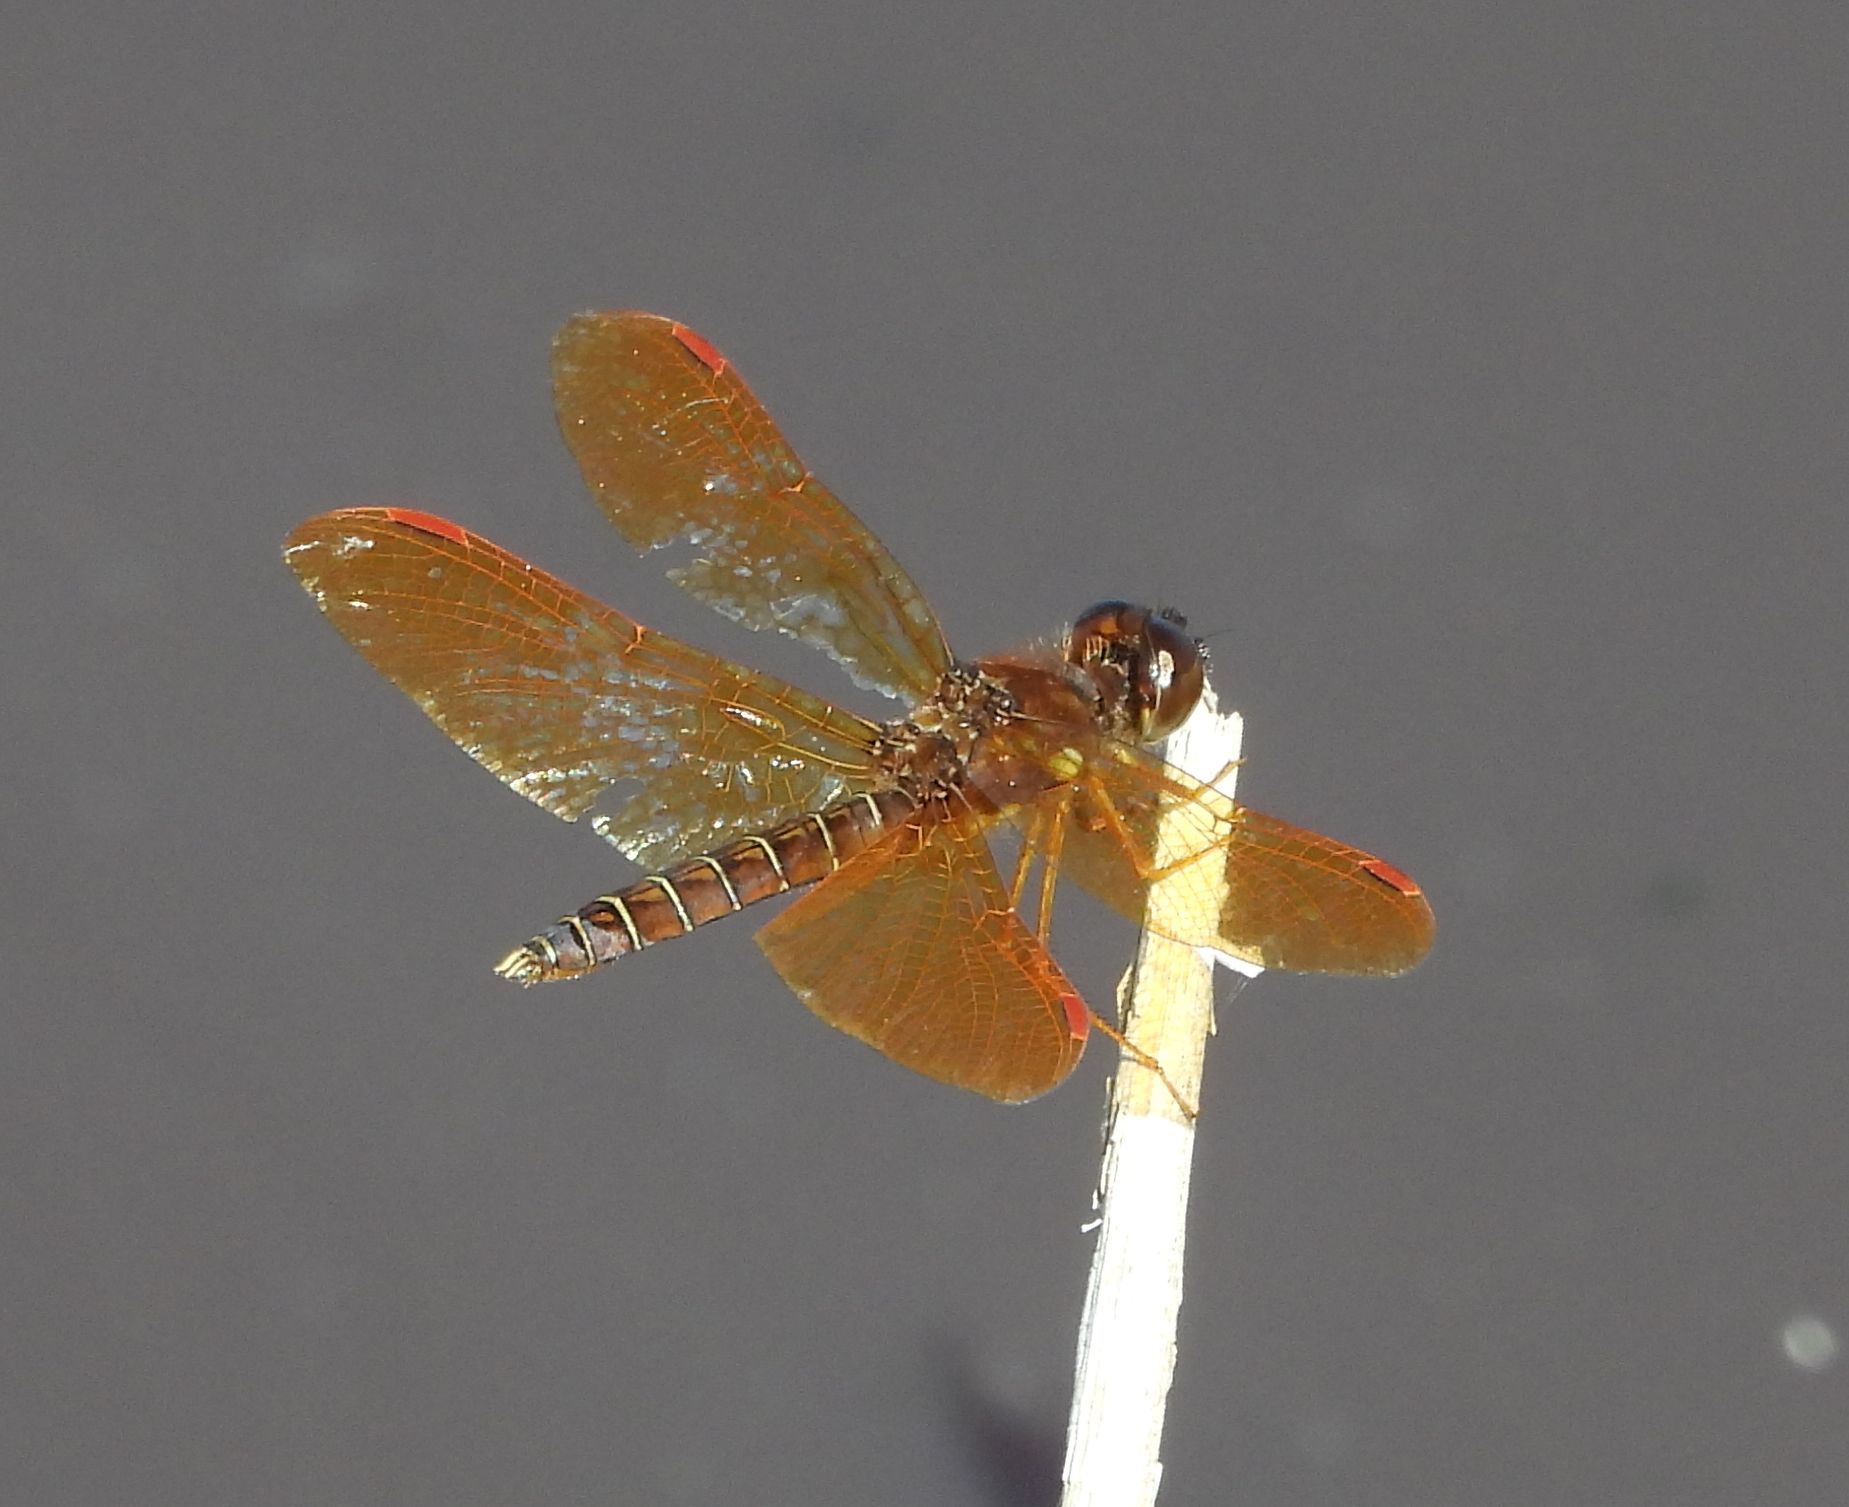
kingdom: Animalia
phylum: Arthropoda
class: Insecta
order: Odonata
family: Libellulidae
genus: Perithemis
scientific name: Perithemis tenera
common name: Eastern amberwing
